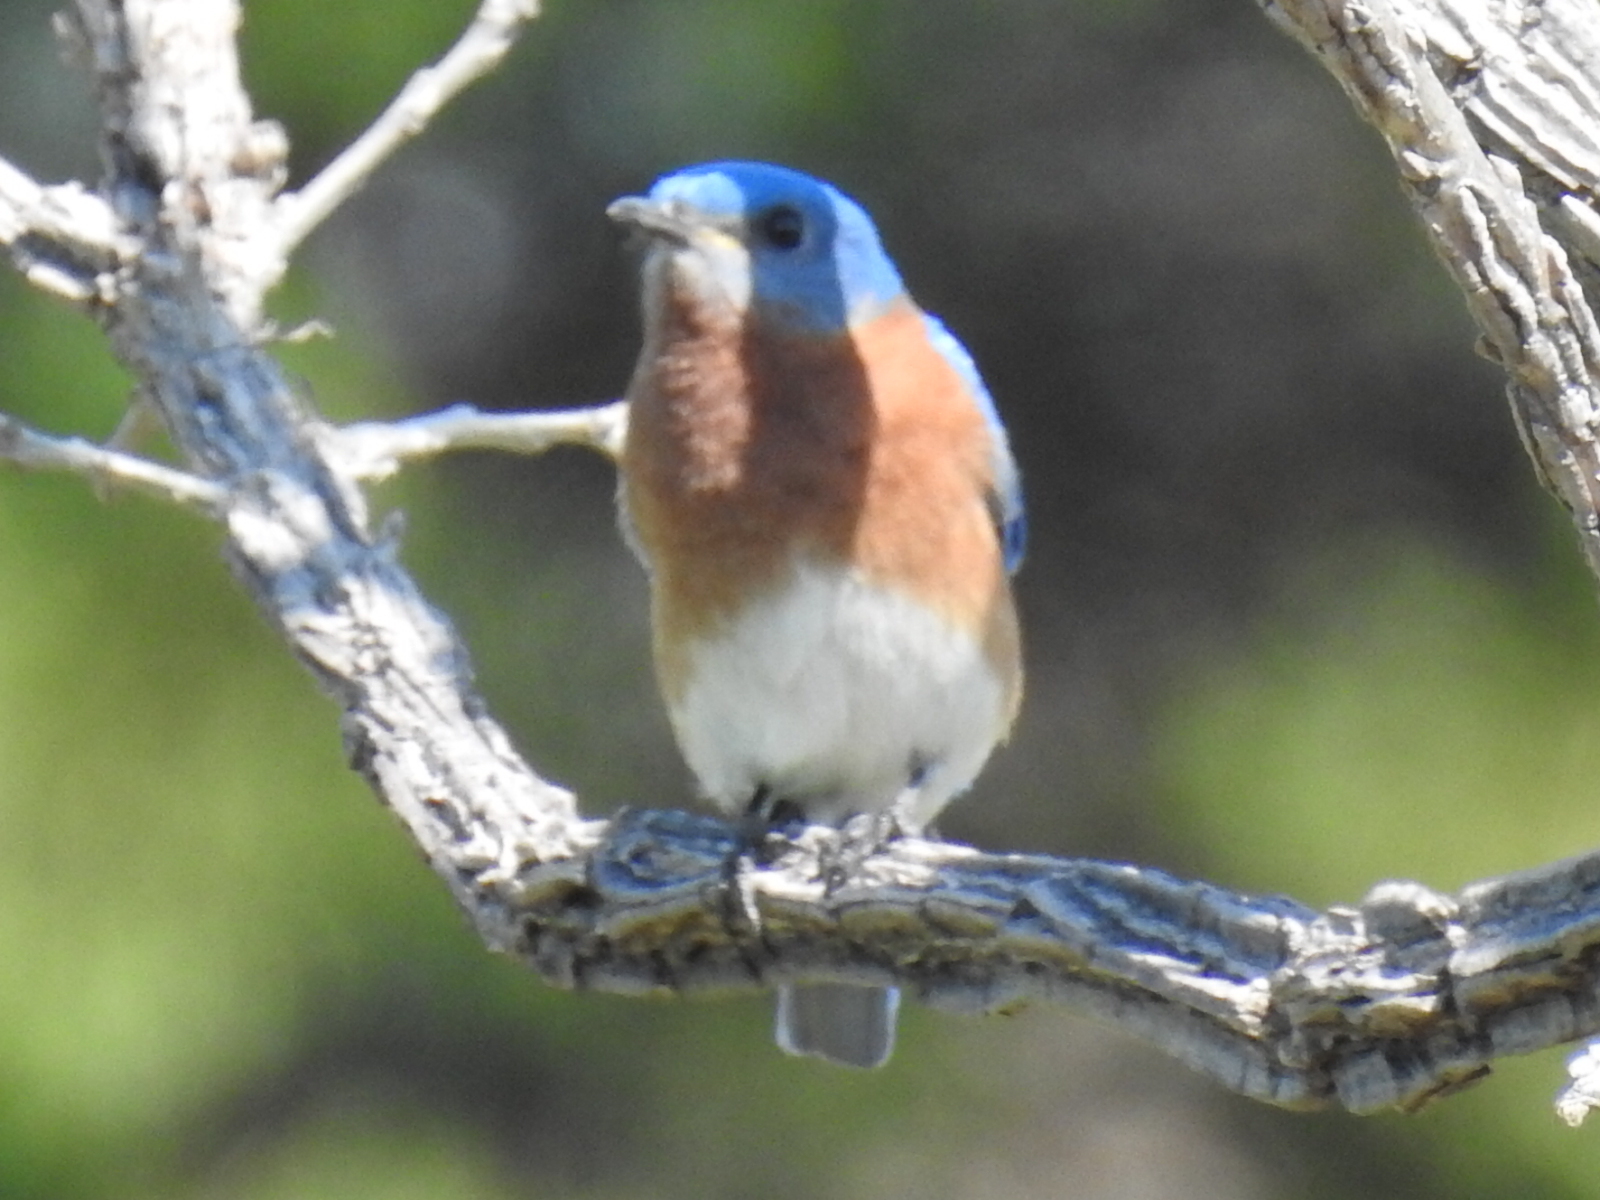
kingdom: Animalia
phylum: Chordata
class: Aves
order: Passeriformes
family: Turdidae
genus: Sialia
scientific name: Sialia sialis
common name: Eastern bluebird
